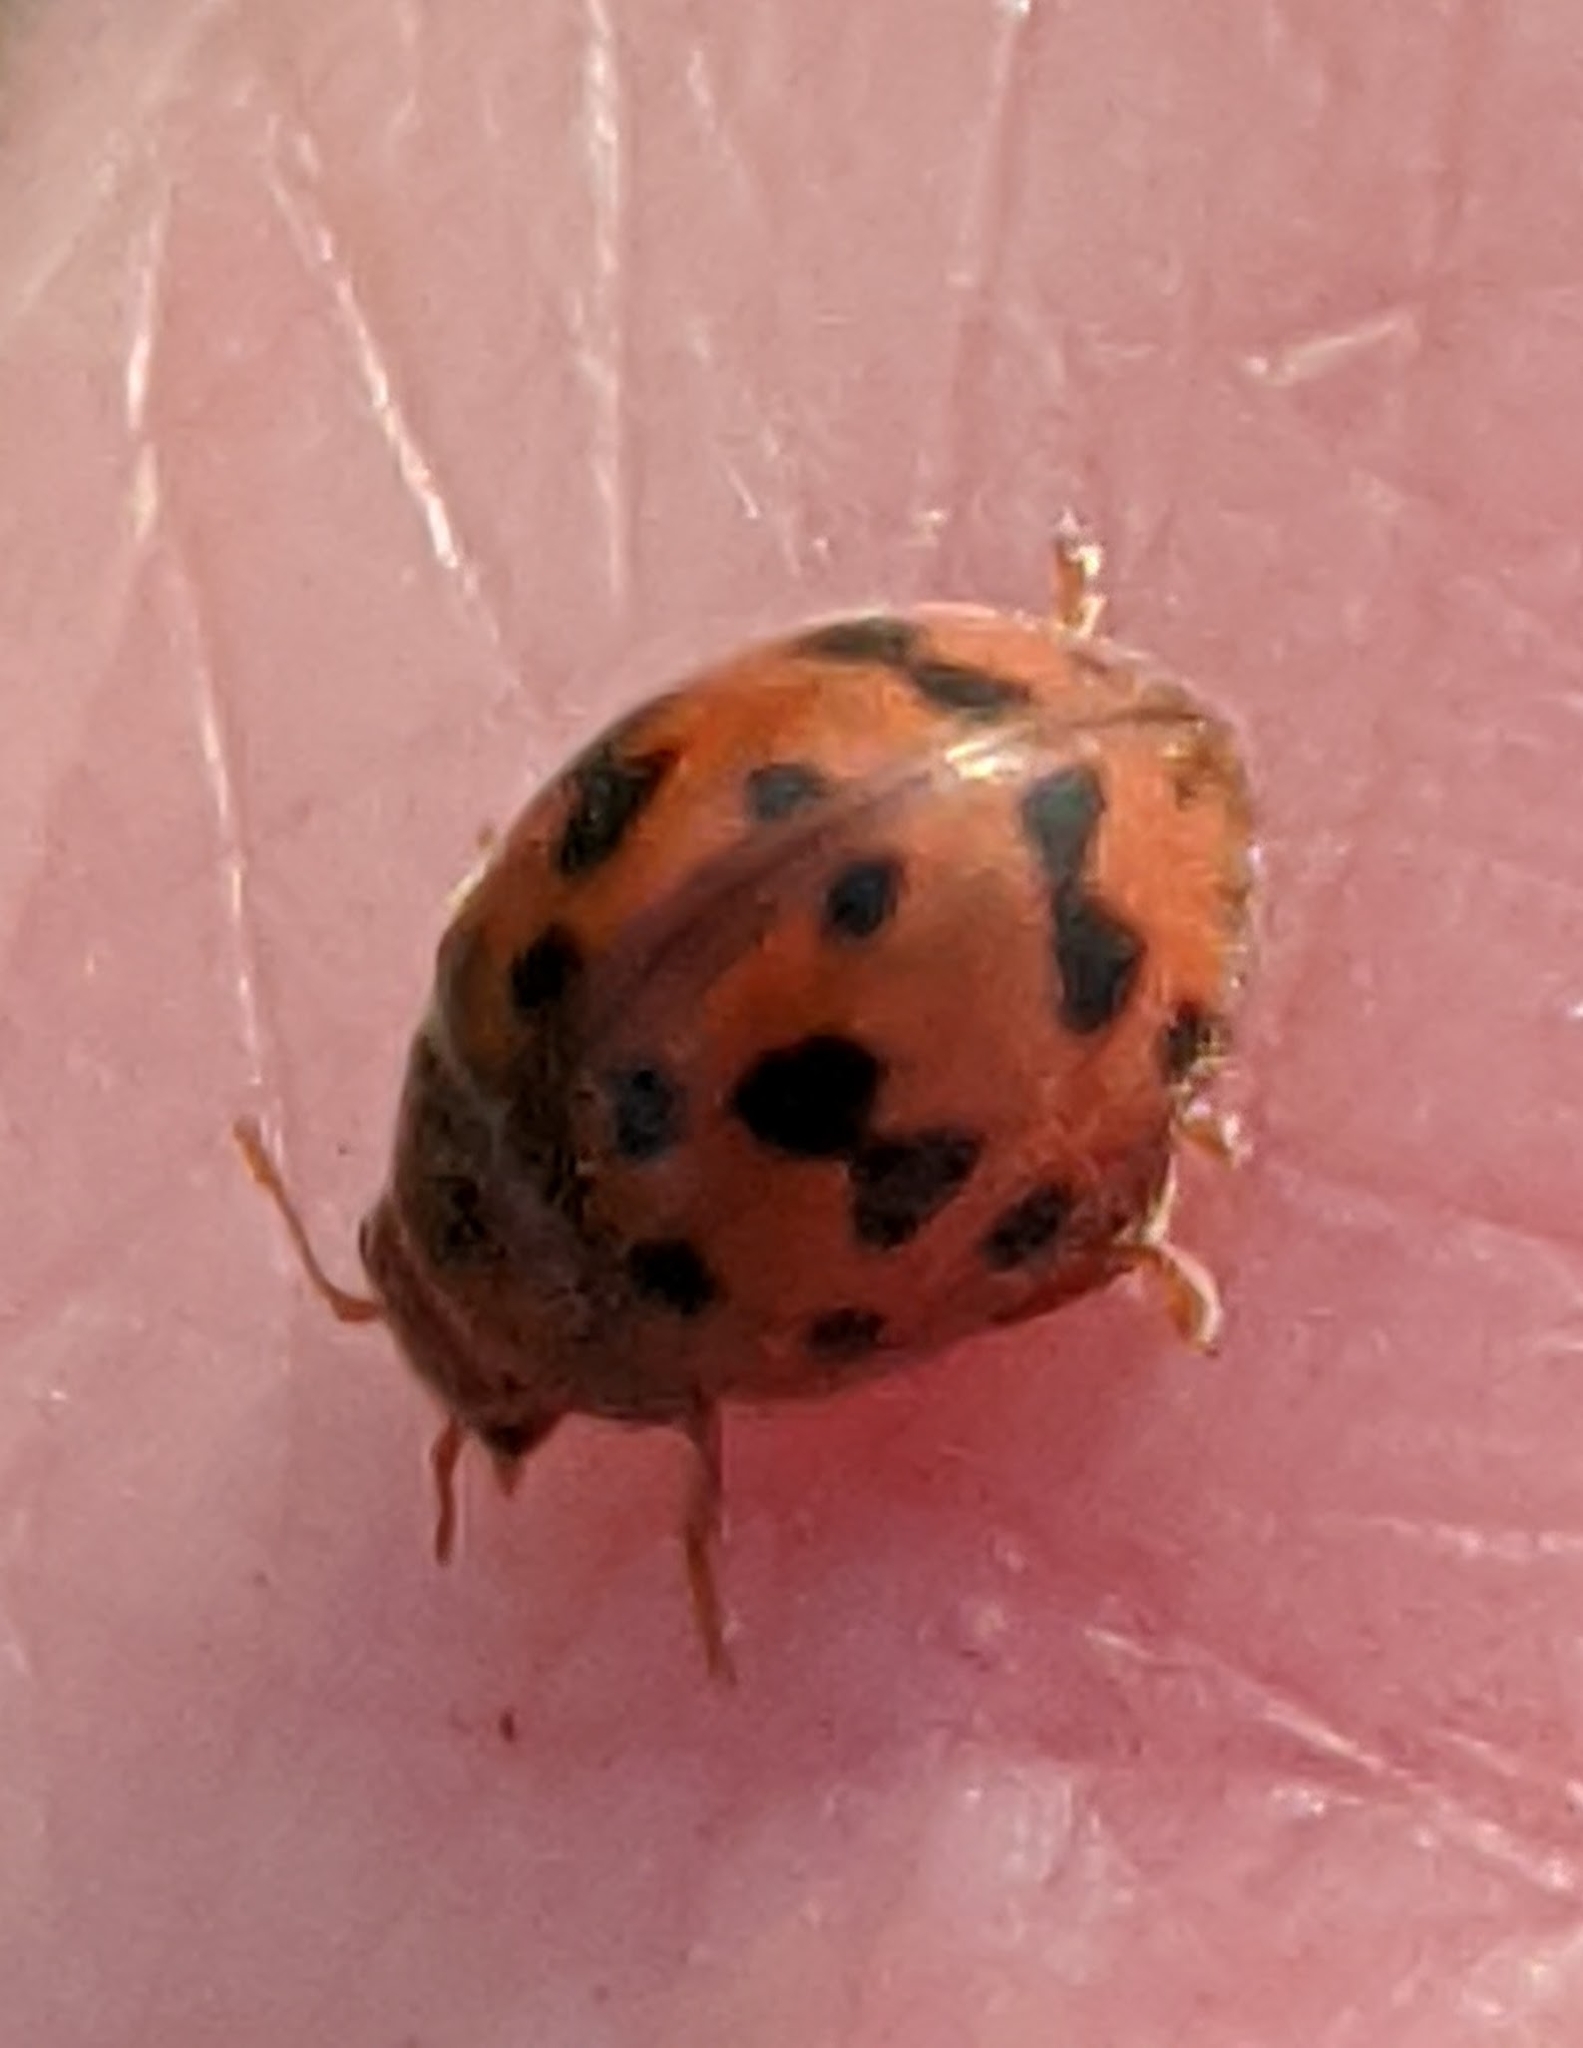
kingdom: Animalia
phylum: Arthropoda
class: Insecta
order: Coleoptera
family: Coccinellidae
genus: Subcoccinella
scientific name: Subcoccinella vigintiquatuorpunctata
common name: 24-spot ladybird
